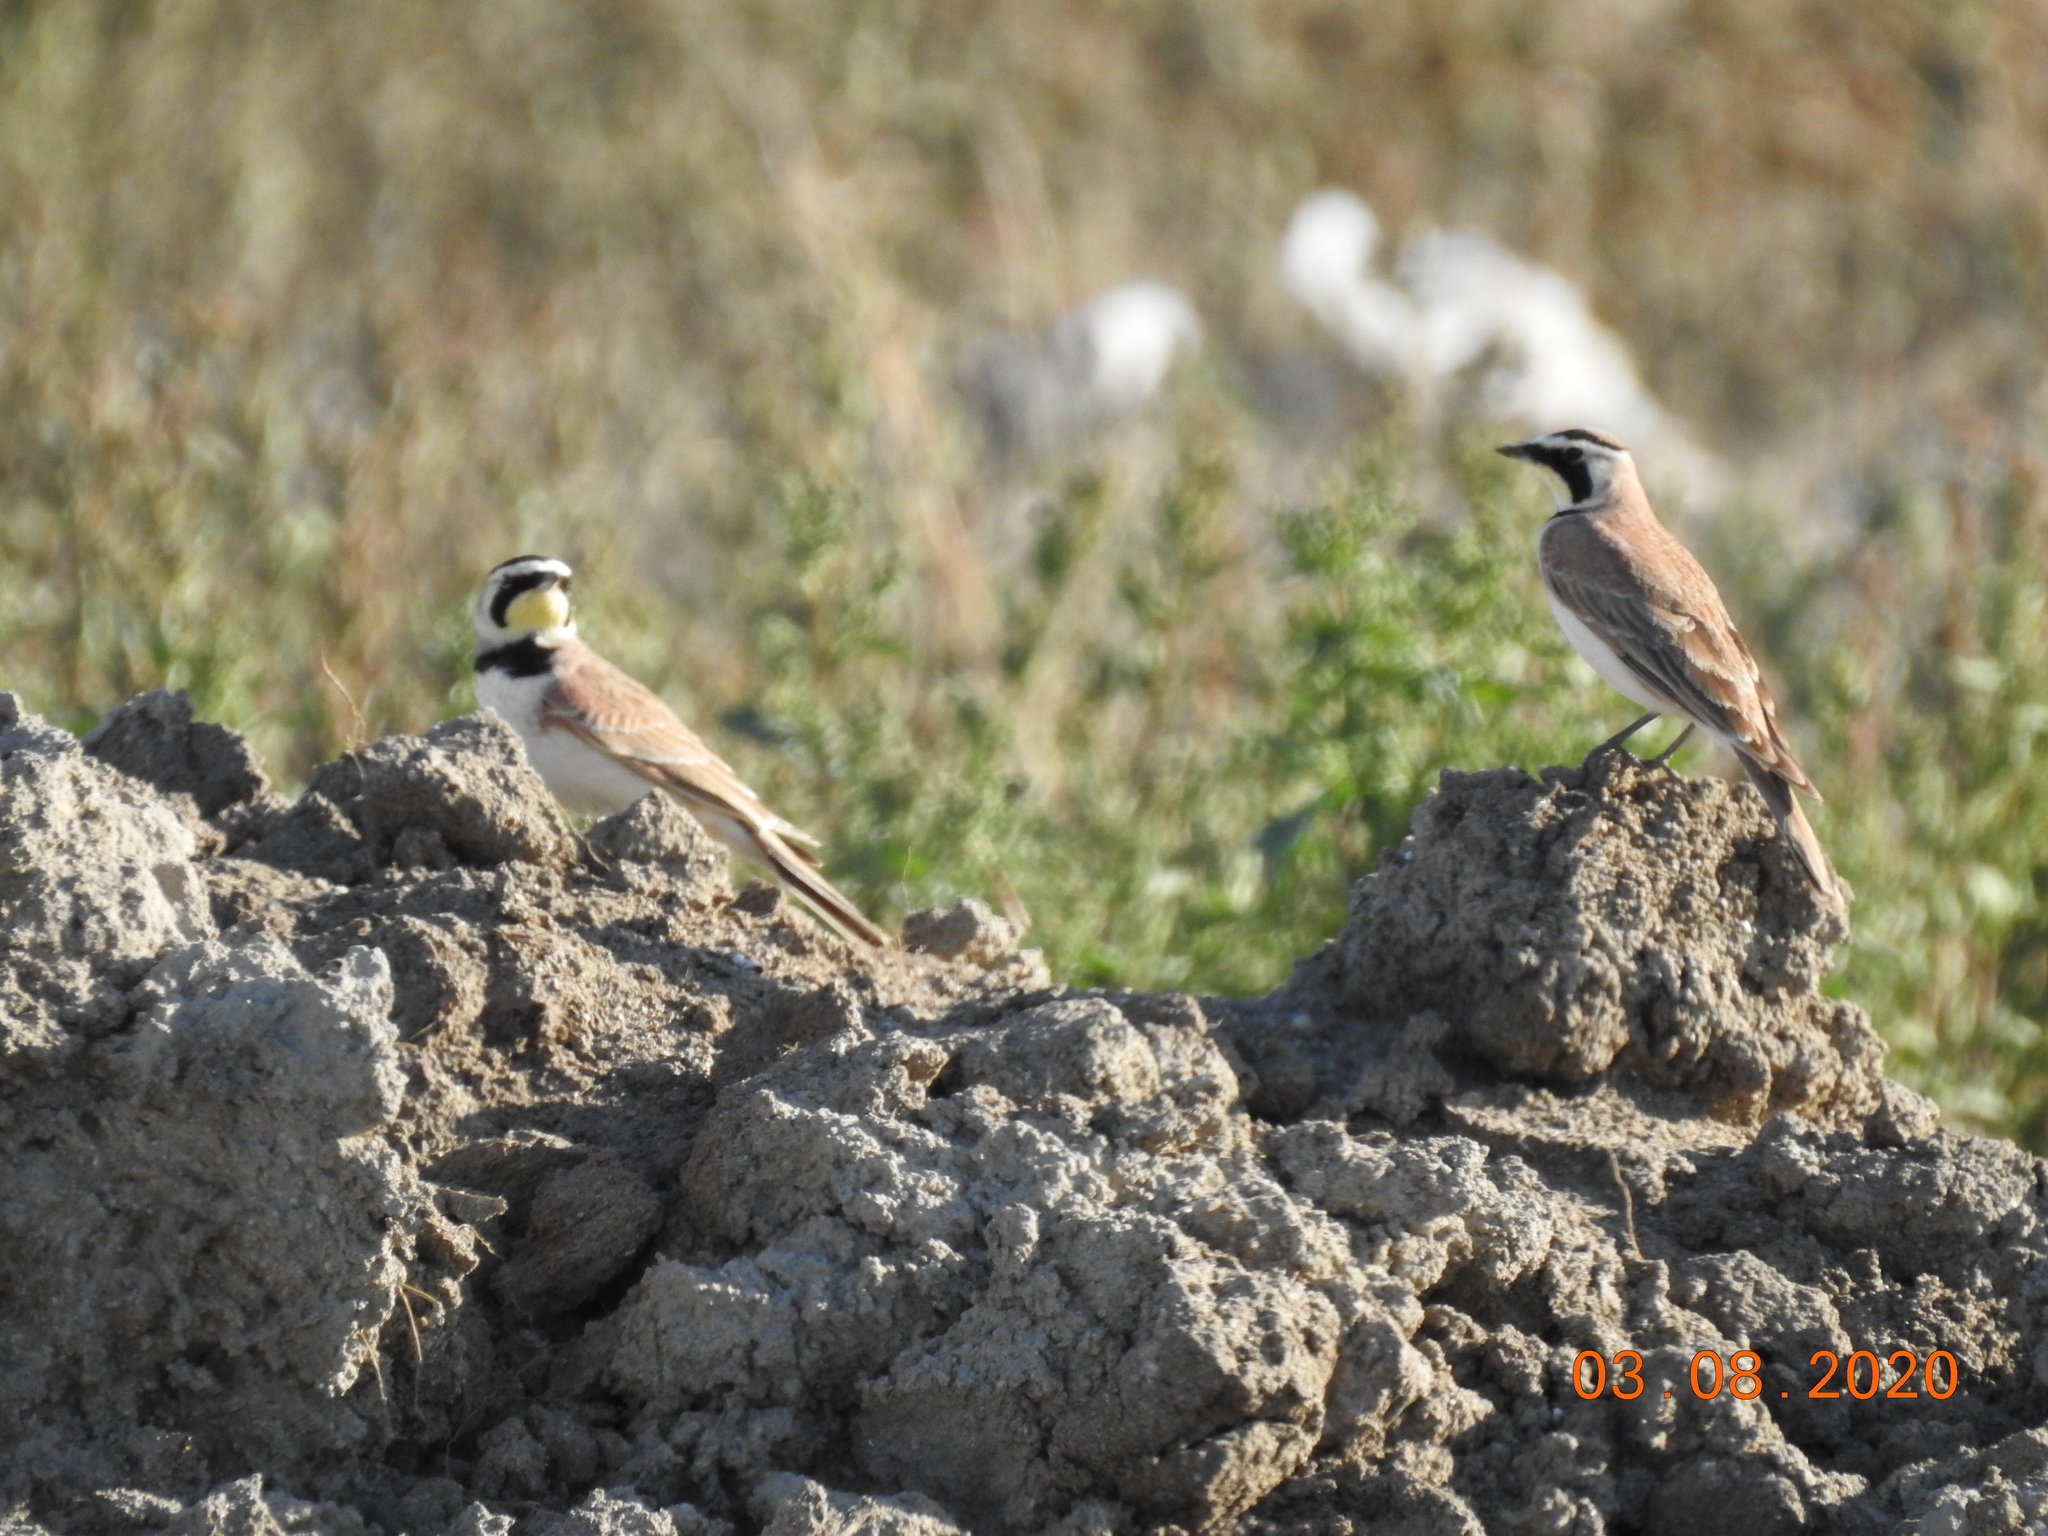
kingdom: Animalia
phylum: Chordata
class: Aves
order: Passeriformes
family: Alaudidae
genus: Eremophila
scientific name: Eremophila alpestris
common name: Horned lark
